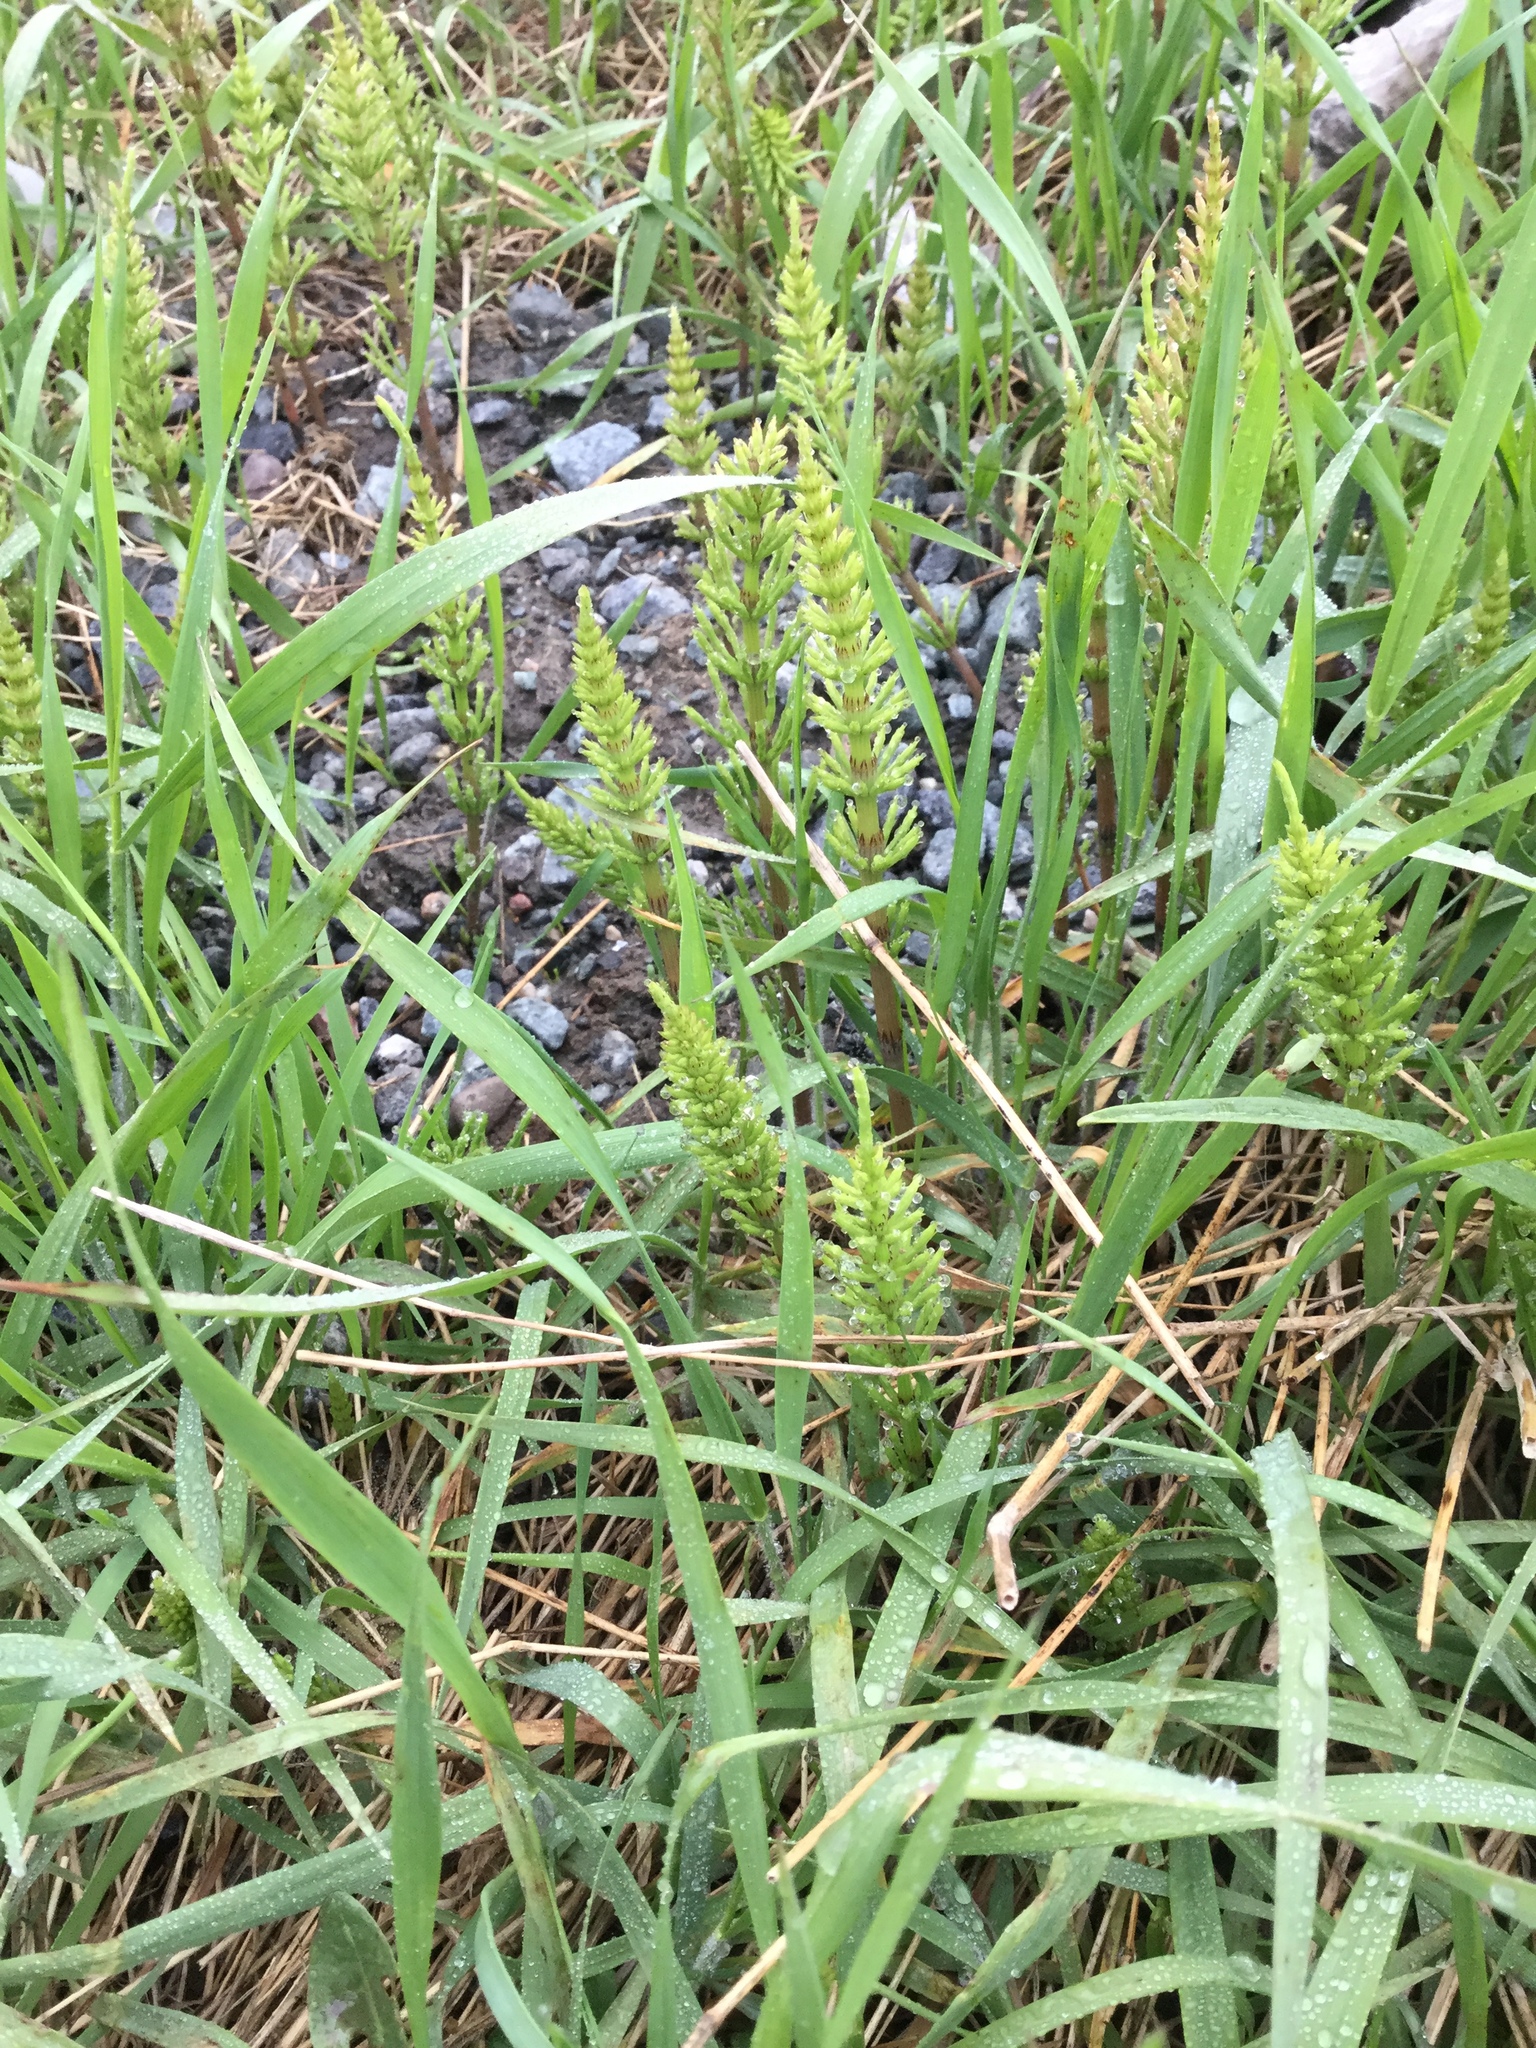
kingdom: Plantae
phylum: Tracheophyta
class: Polypodiopsida
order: Equisetales
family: Equisetaceae
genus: Equisetum
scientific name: Equisetum arvense
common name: Field horsetail
